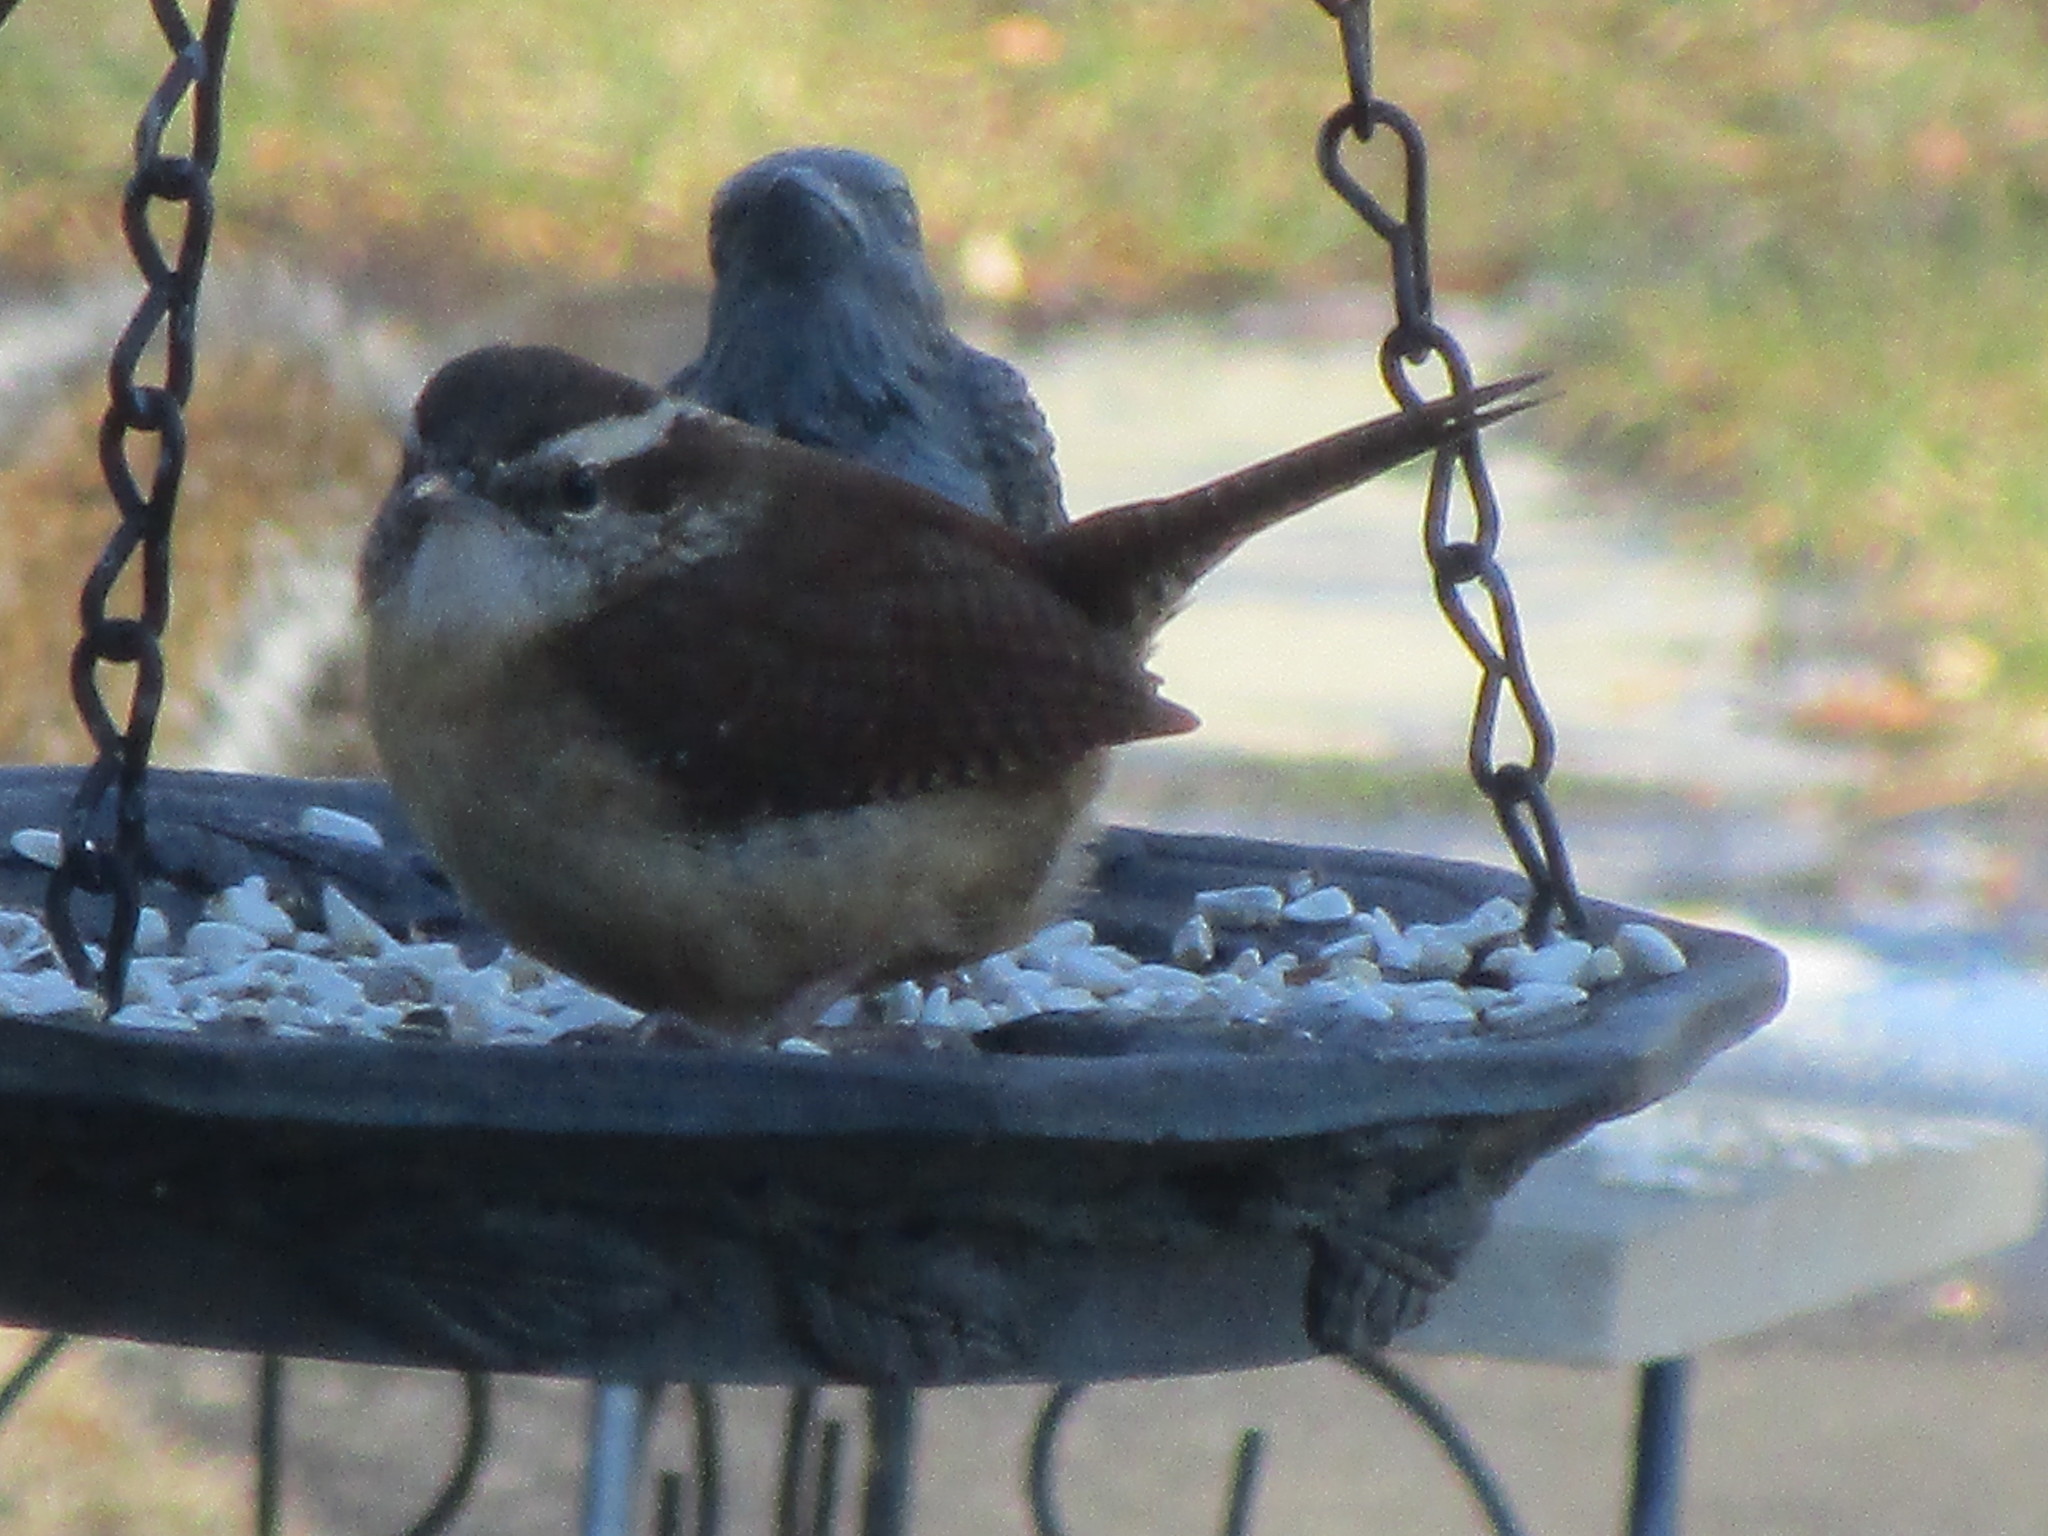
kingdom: Animalia
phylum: Chordata
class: Aves
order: Passeriformes
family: Troglodytidae
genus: Thryothorus
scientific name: Thryothorus ludovicianus
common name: Carolina wren
